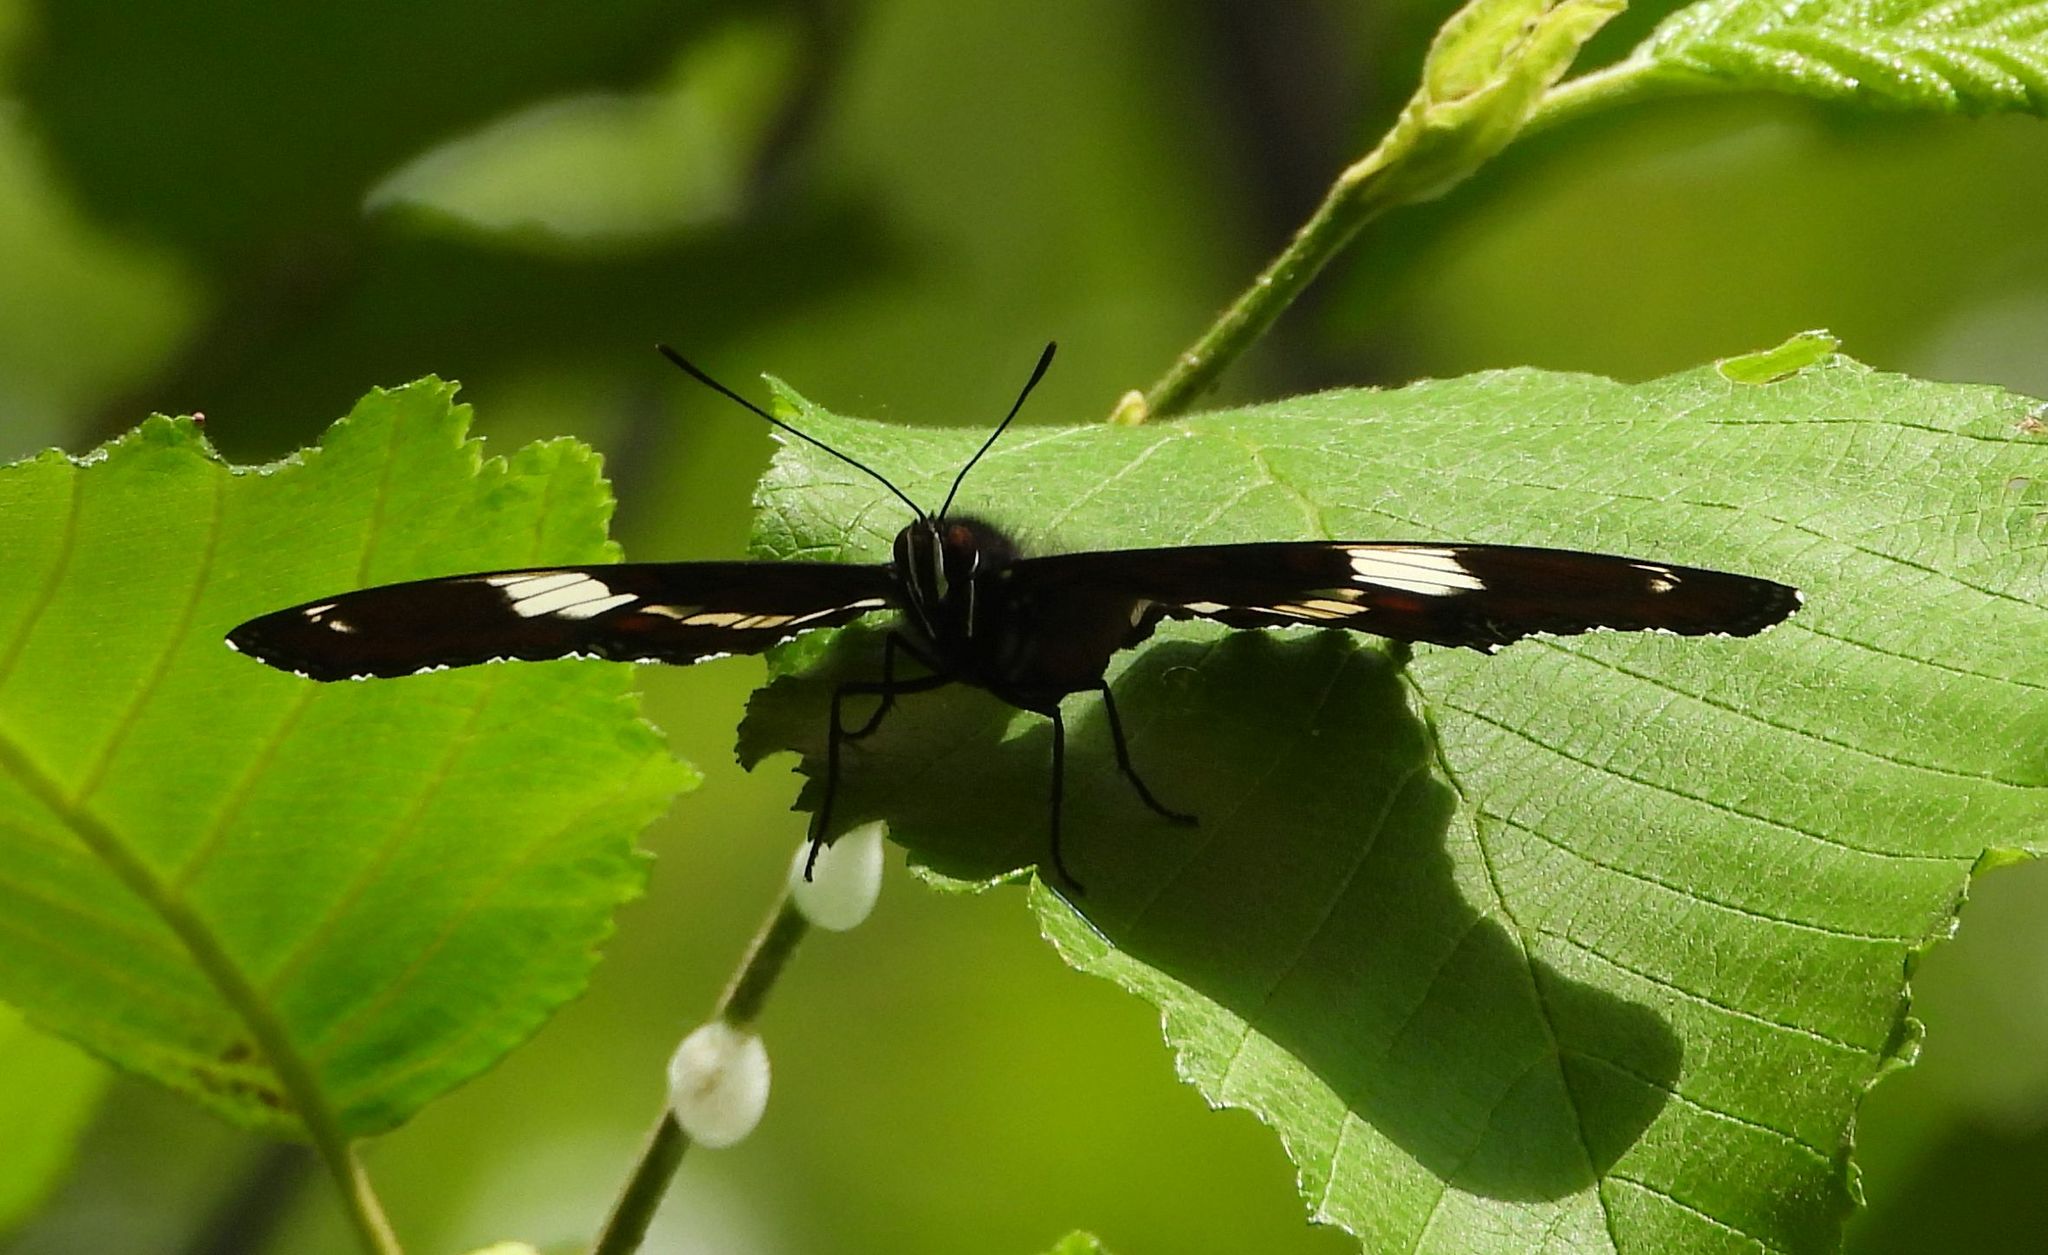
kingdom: Animalia
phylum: Arthropoda
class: Insecta
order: Lepidoptera
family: Nymphalidae
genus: Limenitis
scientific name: Limenitis arthemis
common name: Red-spotted admiral
